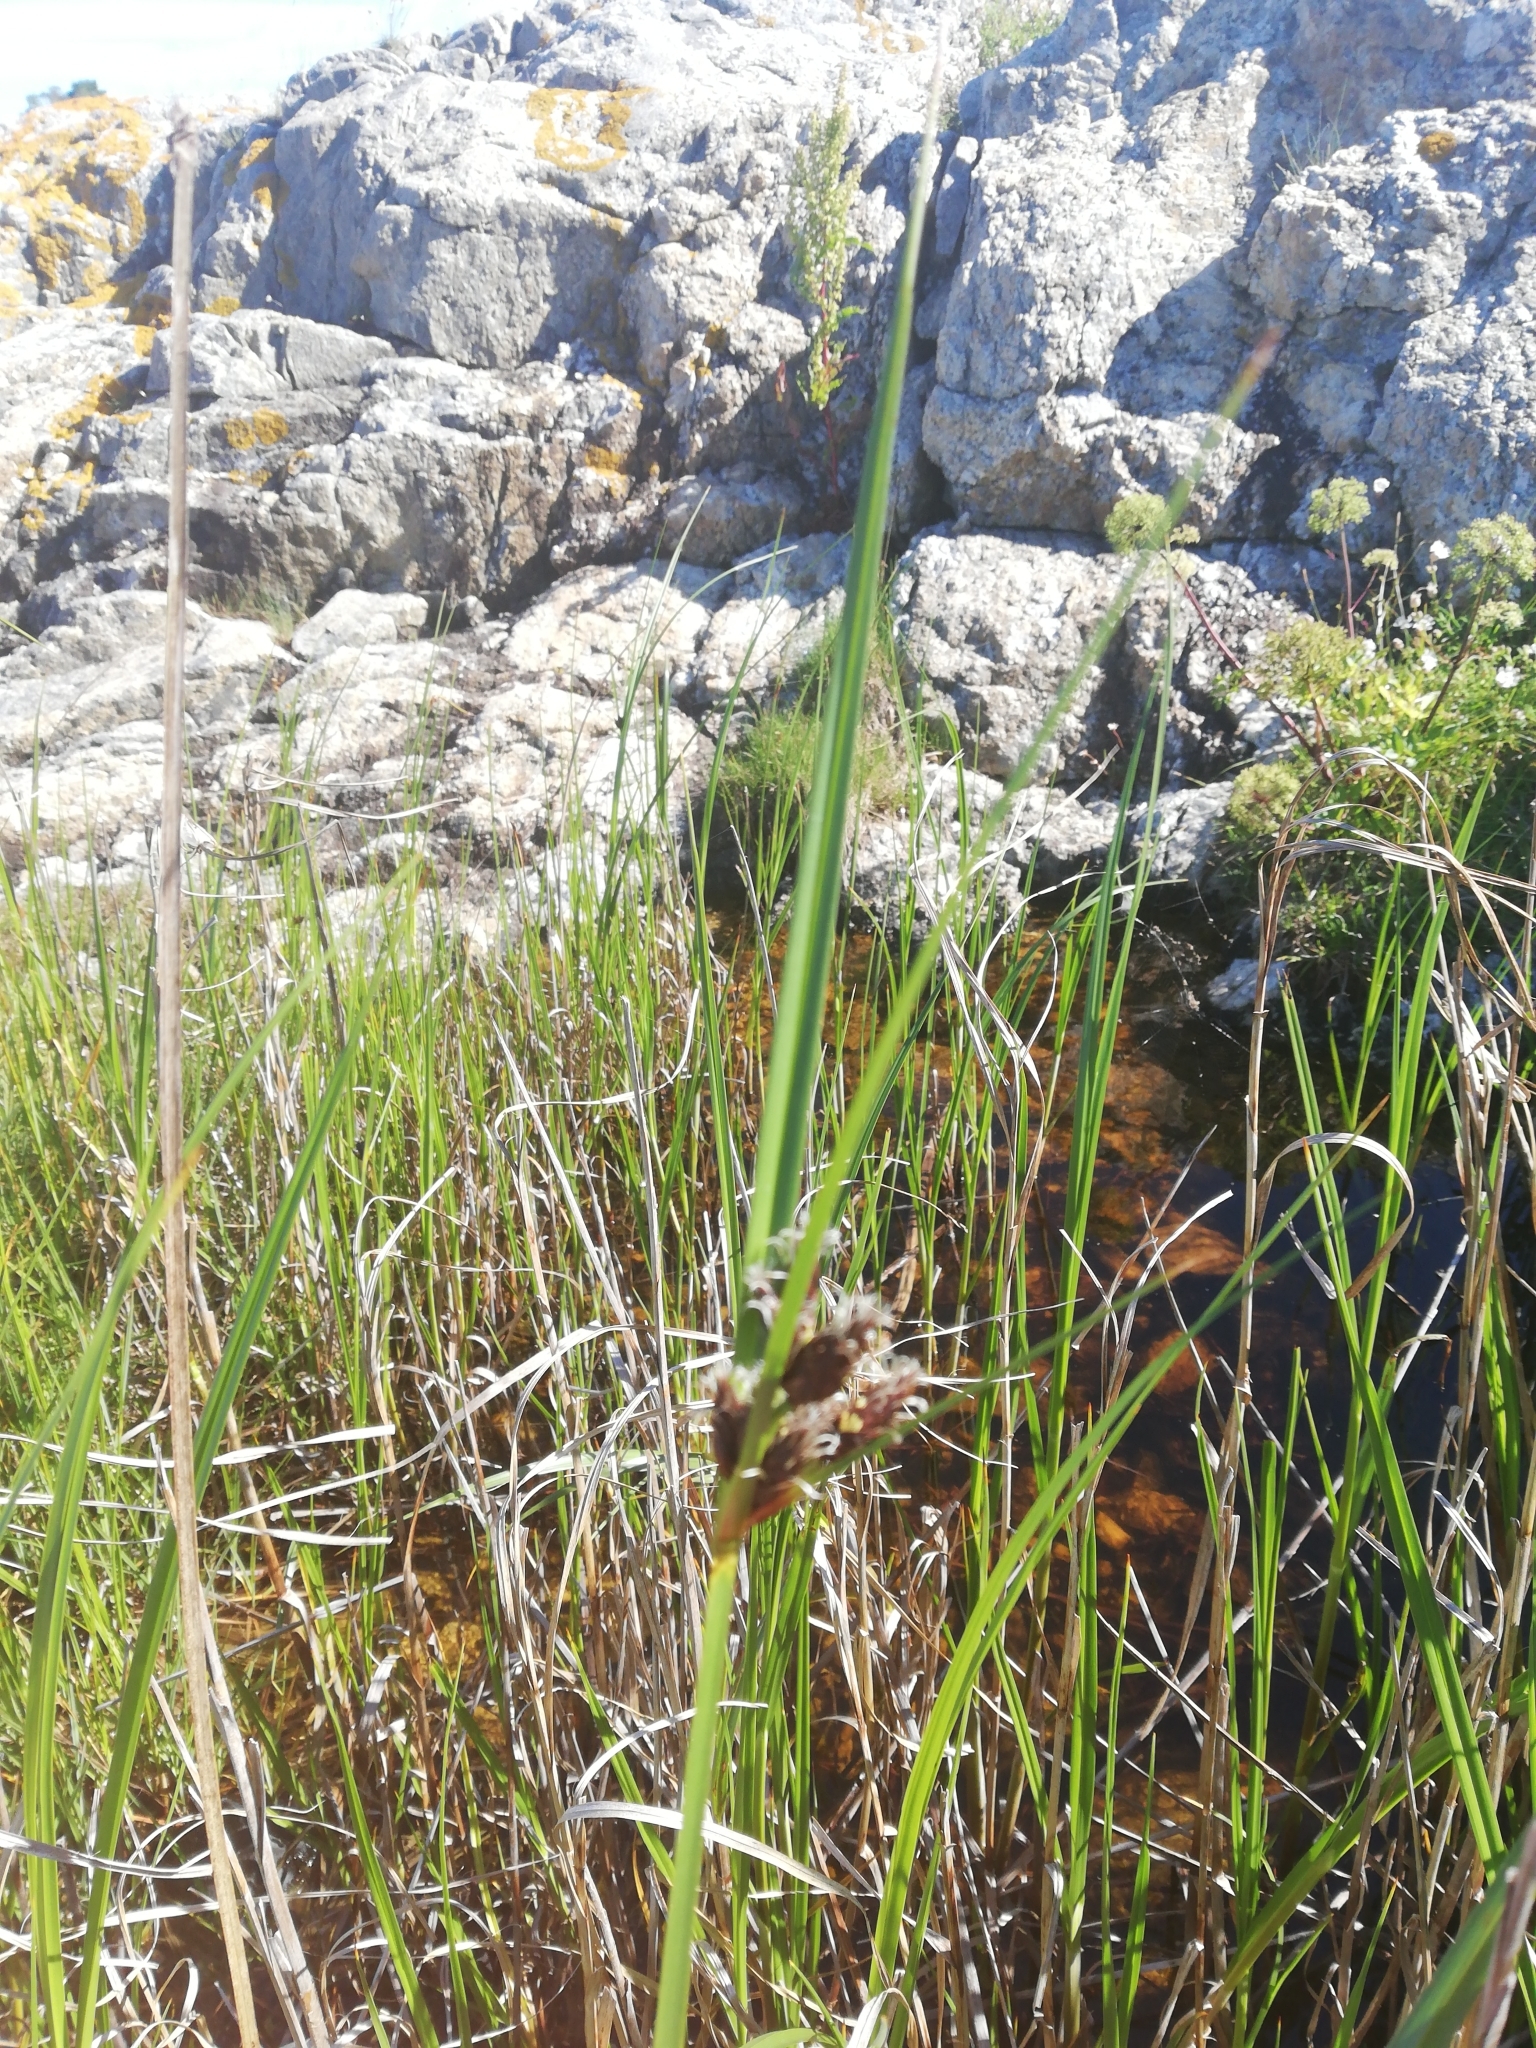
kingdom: Plantae
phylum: Tracheophyta
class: Liliopsida
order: Poales
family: Cyperaceae
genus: Bolboschoenus
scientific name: Bolboschoenus maritimus
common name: Sea club-rush
